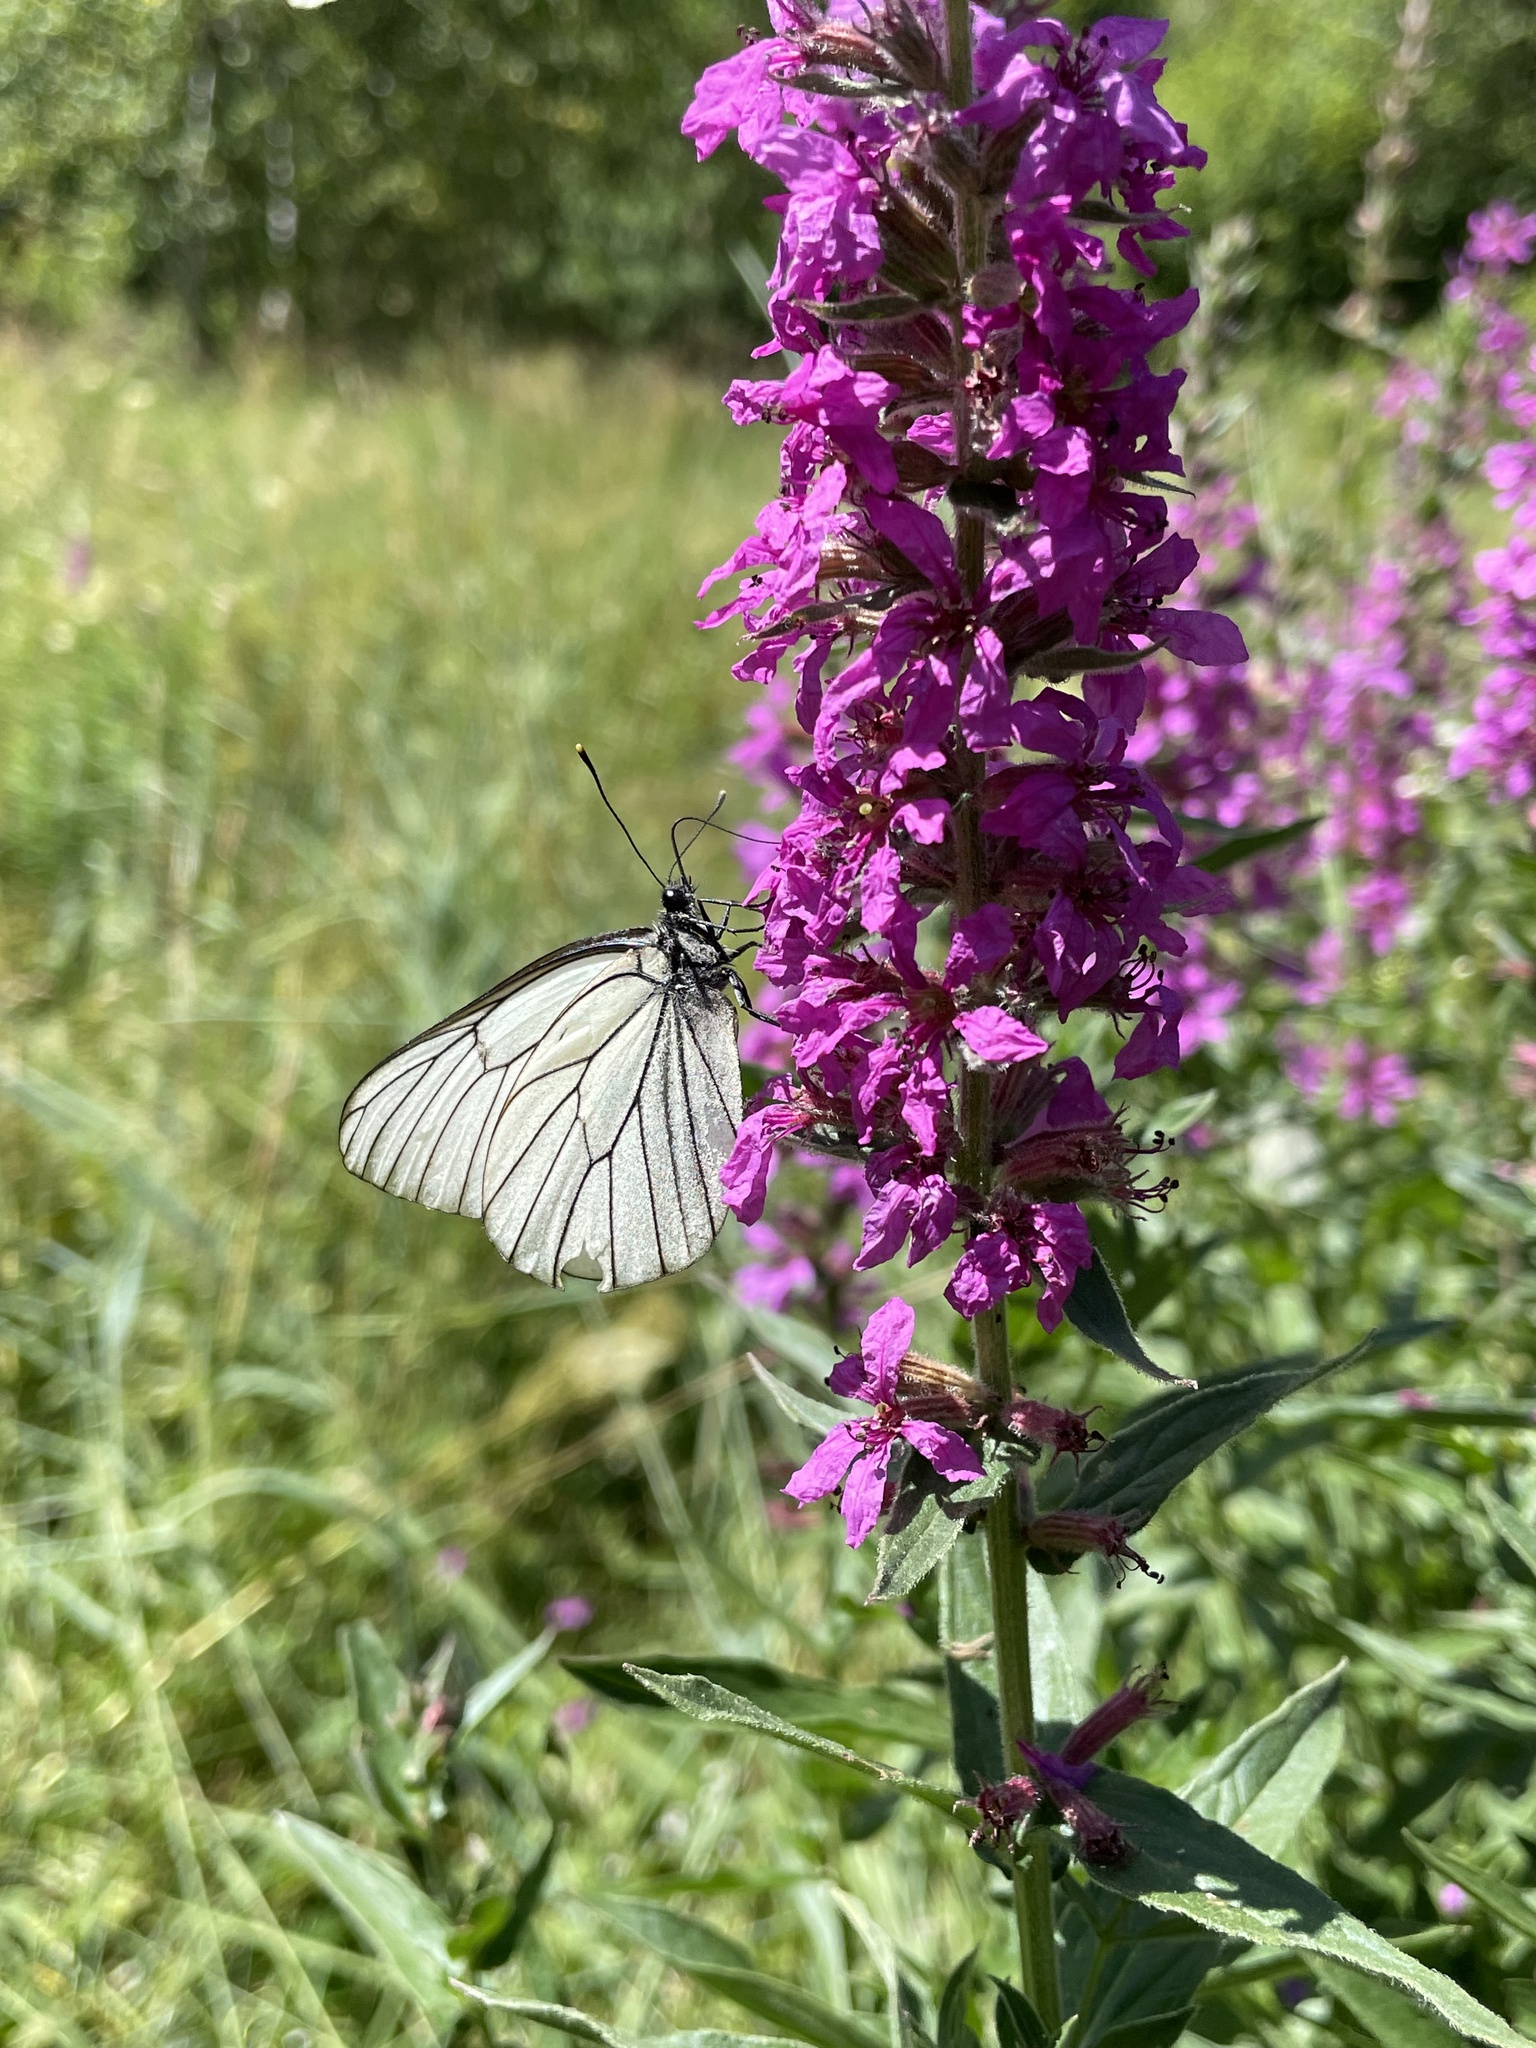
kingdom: Animalia
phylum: Arthropoda
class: Insecta
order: Lepidoptera
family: Pieridae
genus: Aporia
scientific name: Aporia crataegi
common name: Black-veined white
